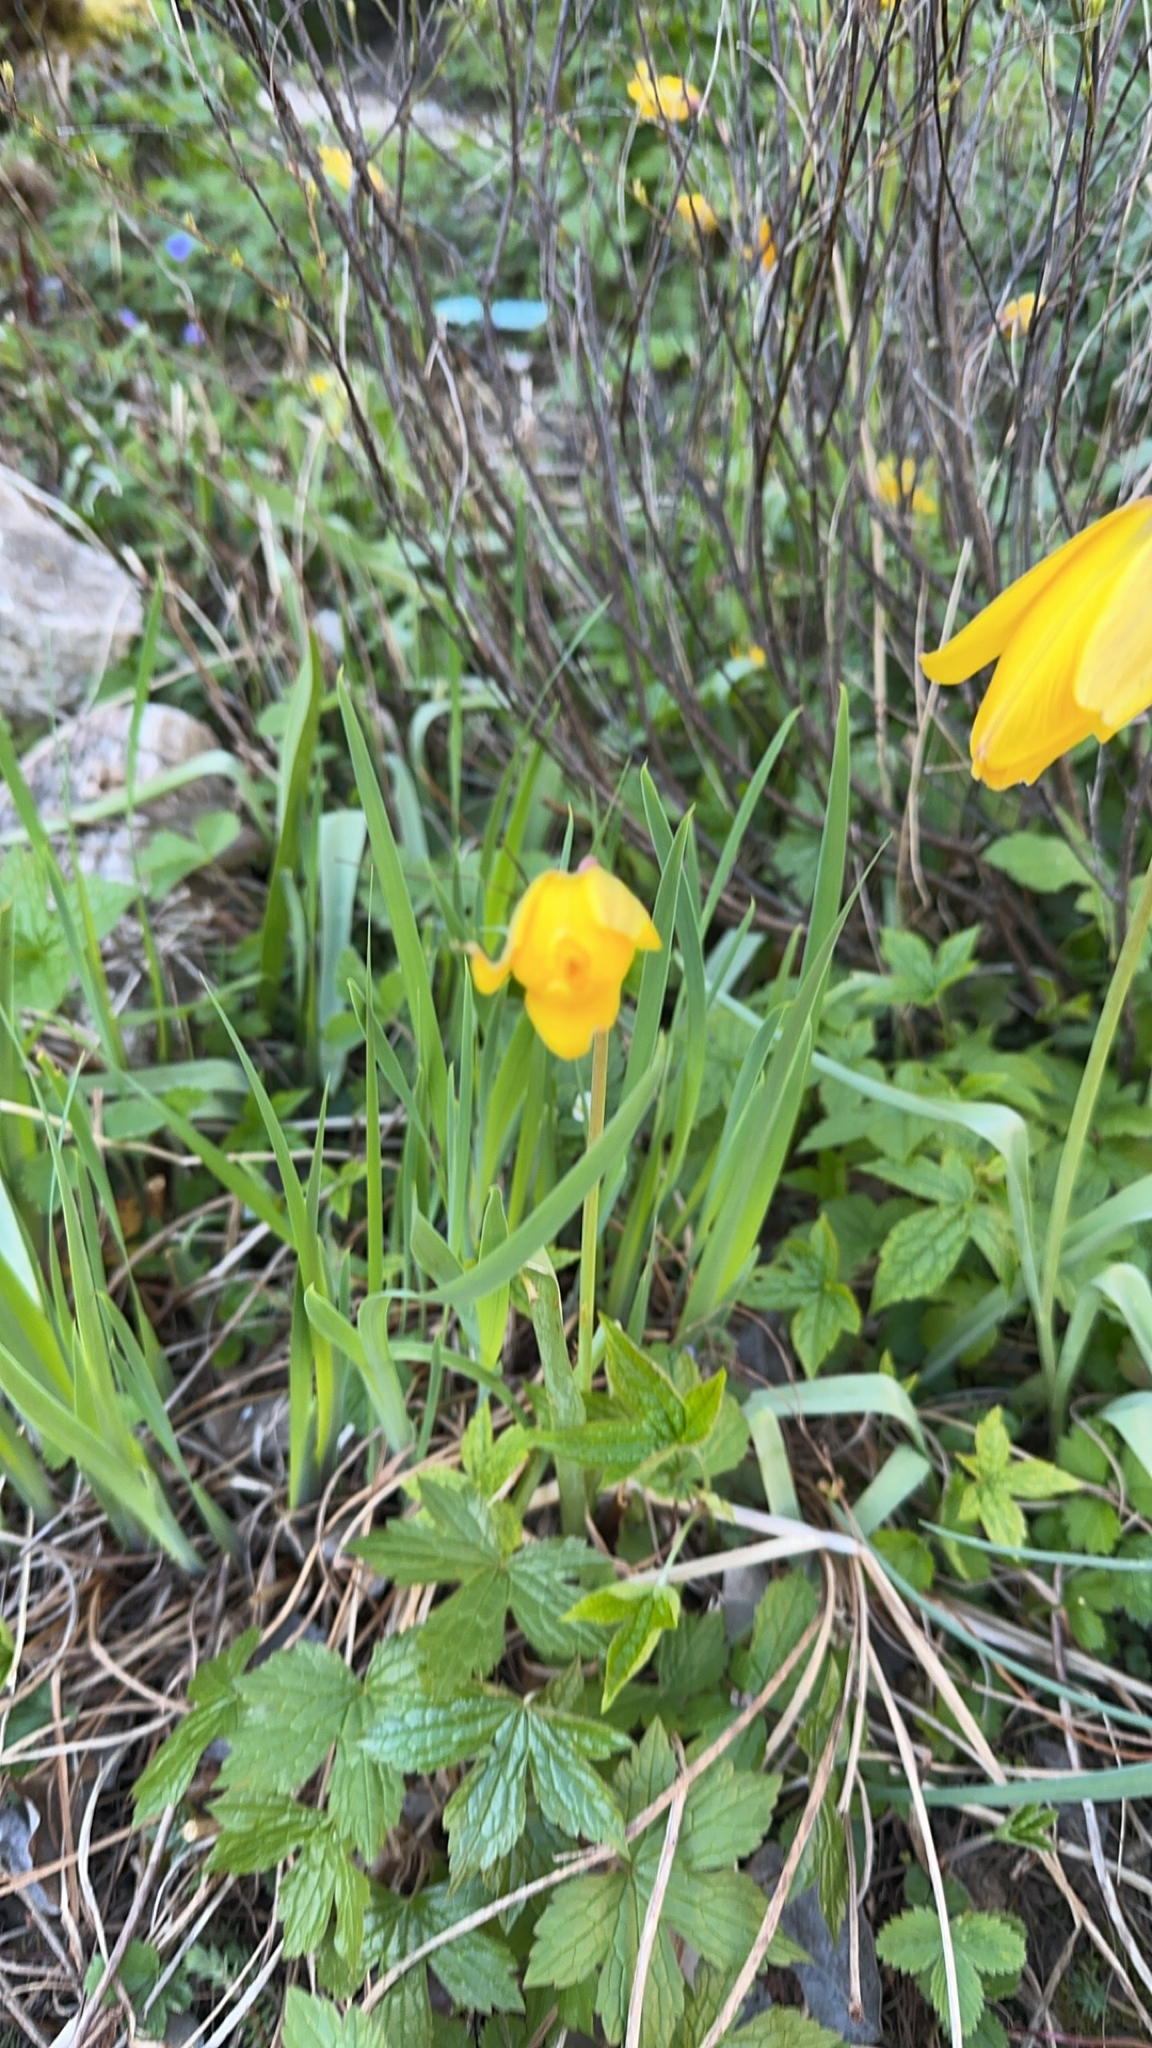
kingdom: Plantae
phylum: Tracheophyta
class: Liliopsida
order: Liliales
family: Liliaceae
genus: Tulipa
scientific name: Tulipa sylvestris
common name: Wild tulip
